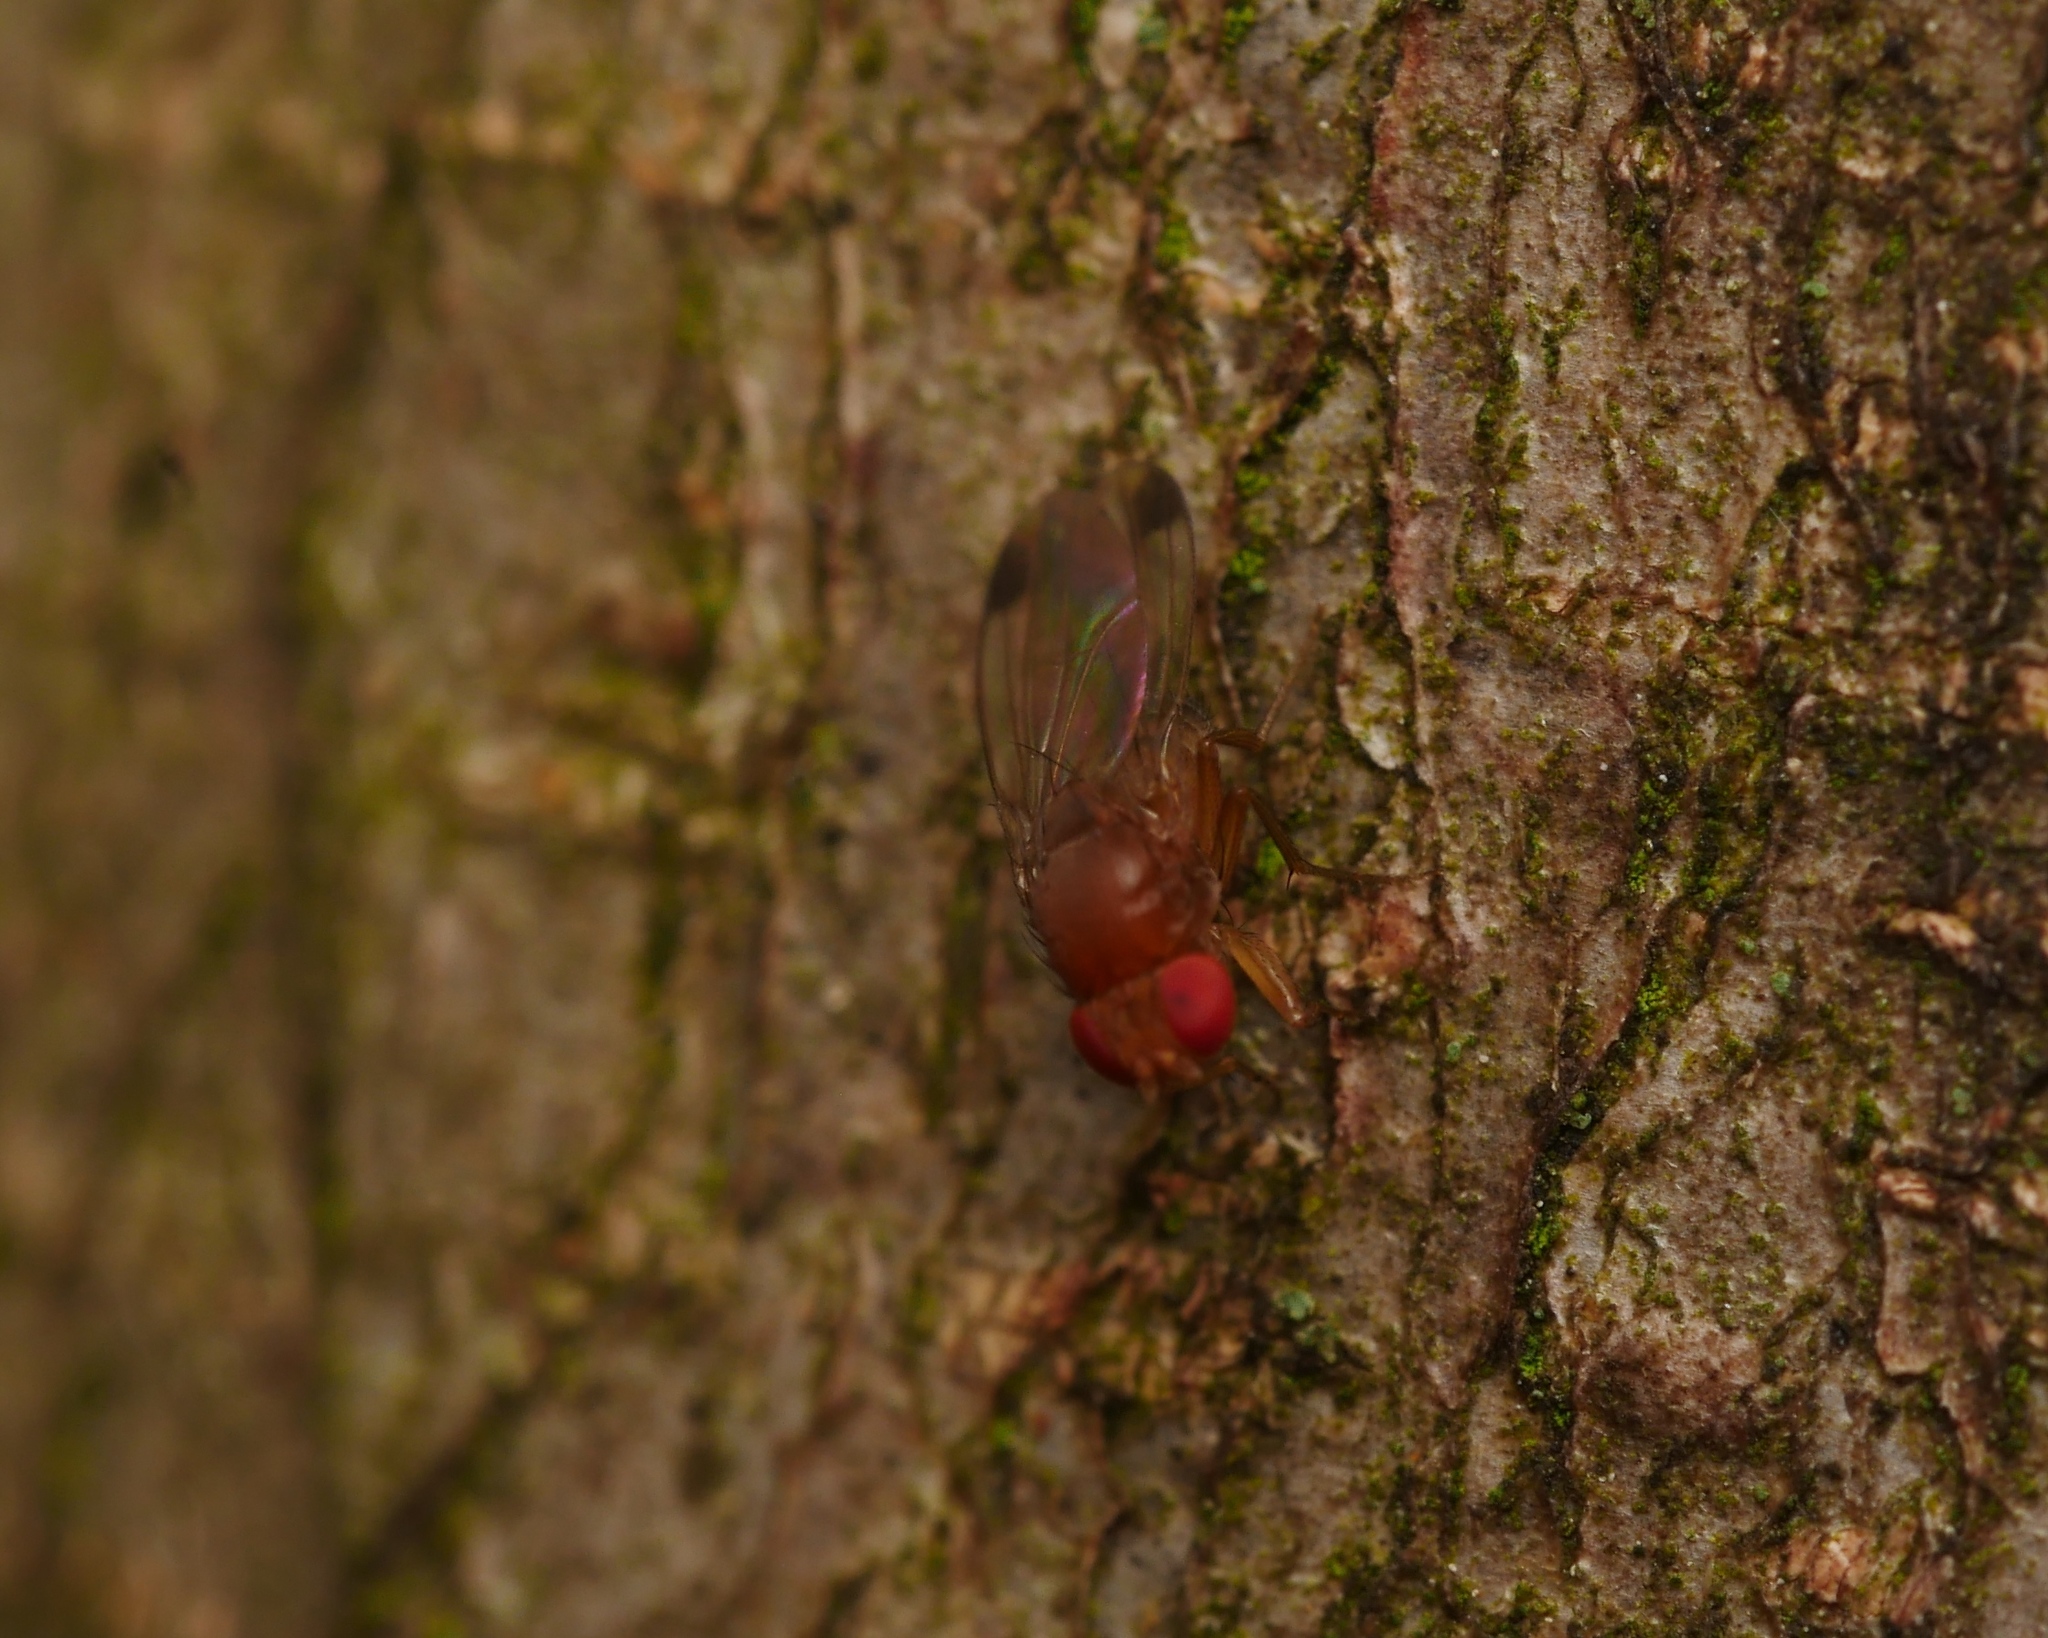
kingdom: Animalia
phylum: Arthropoda
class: Insecta
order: Diptera
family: Drosophilidae
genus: Drosophila
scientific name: Drosophila suzukii
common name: Spotted-wing drosophila
